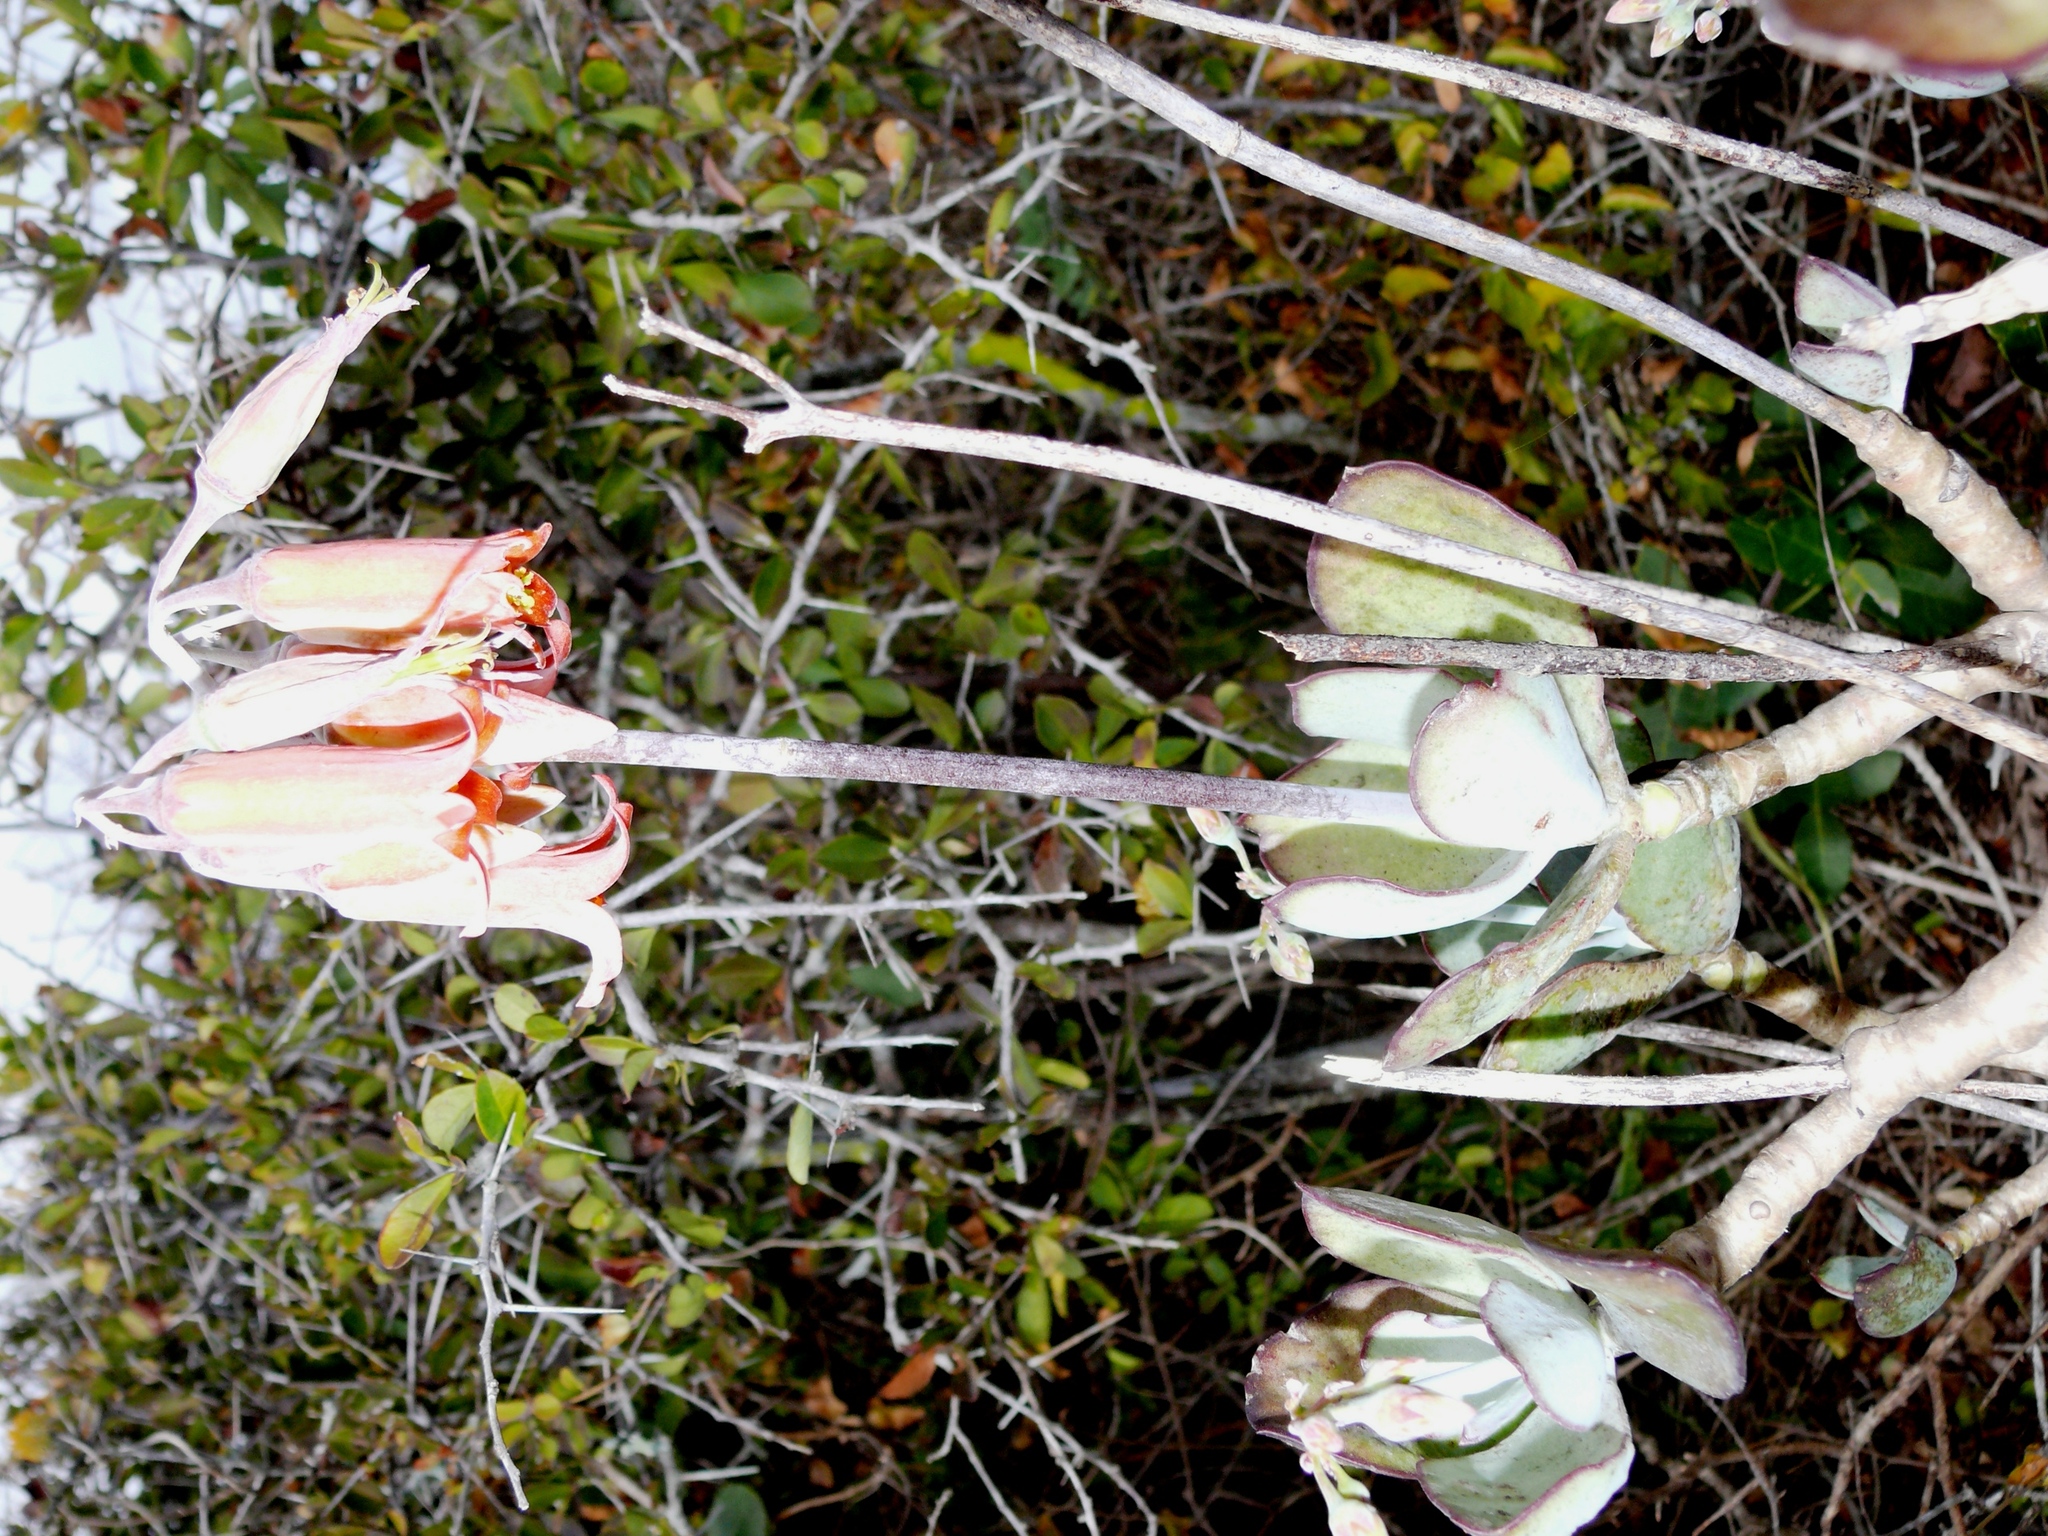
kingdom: Plantae
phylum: Tracheophyta
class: Magnoliopsida
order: Saxifragales
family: Crassulaceae
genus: Cotyledon
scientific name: Cotyledon orbiculata
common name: Pig's ear
